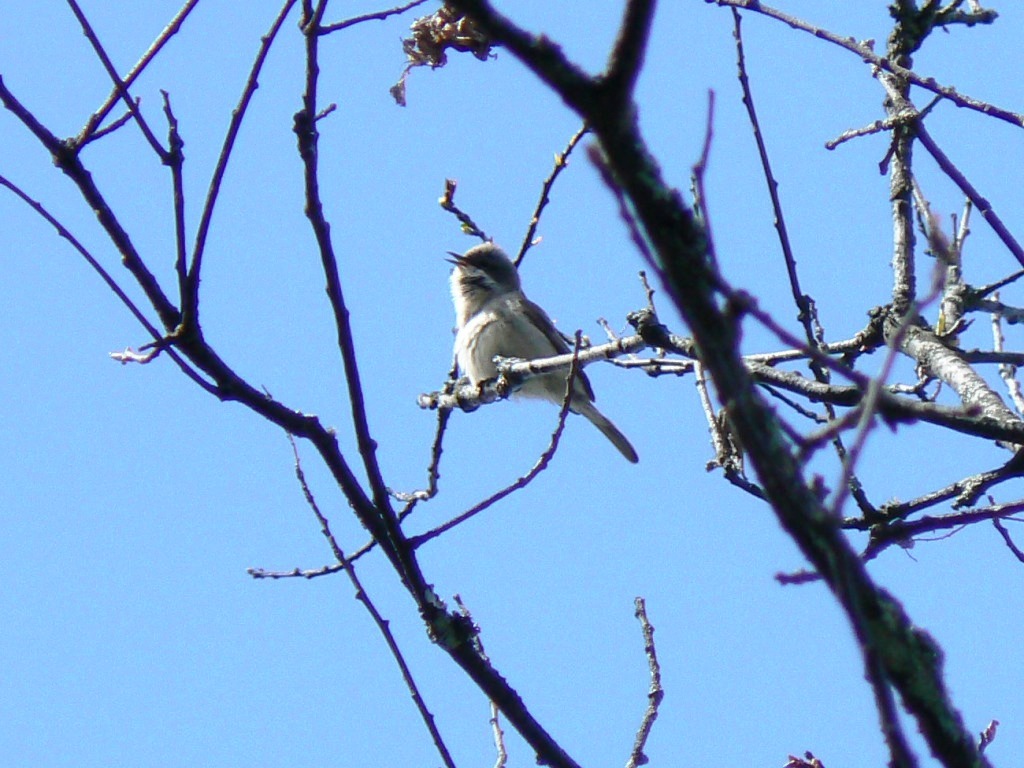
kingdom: Animalia
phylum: Chordata
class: Aves
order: Passeriformes
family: Sylviidae
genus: Sylvia
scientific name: Sylvia curruca
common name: Lesser whitethroat
